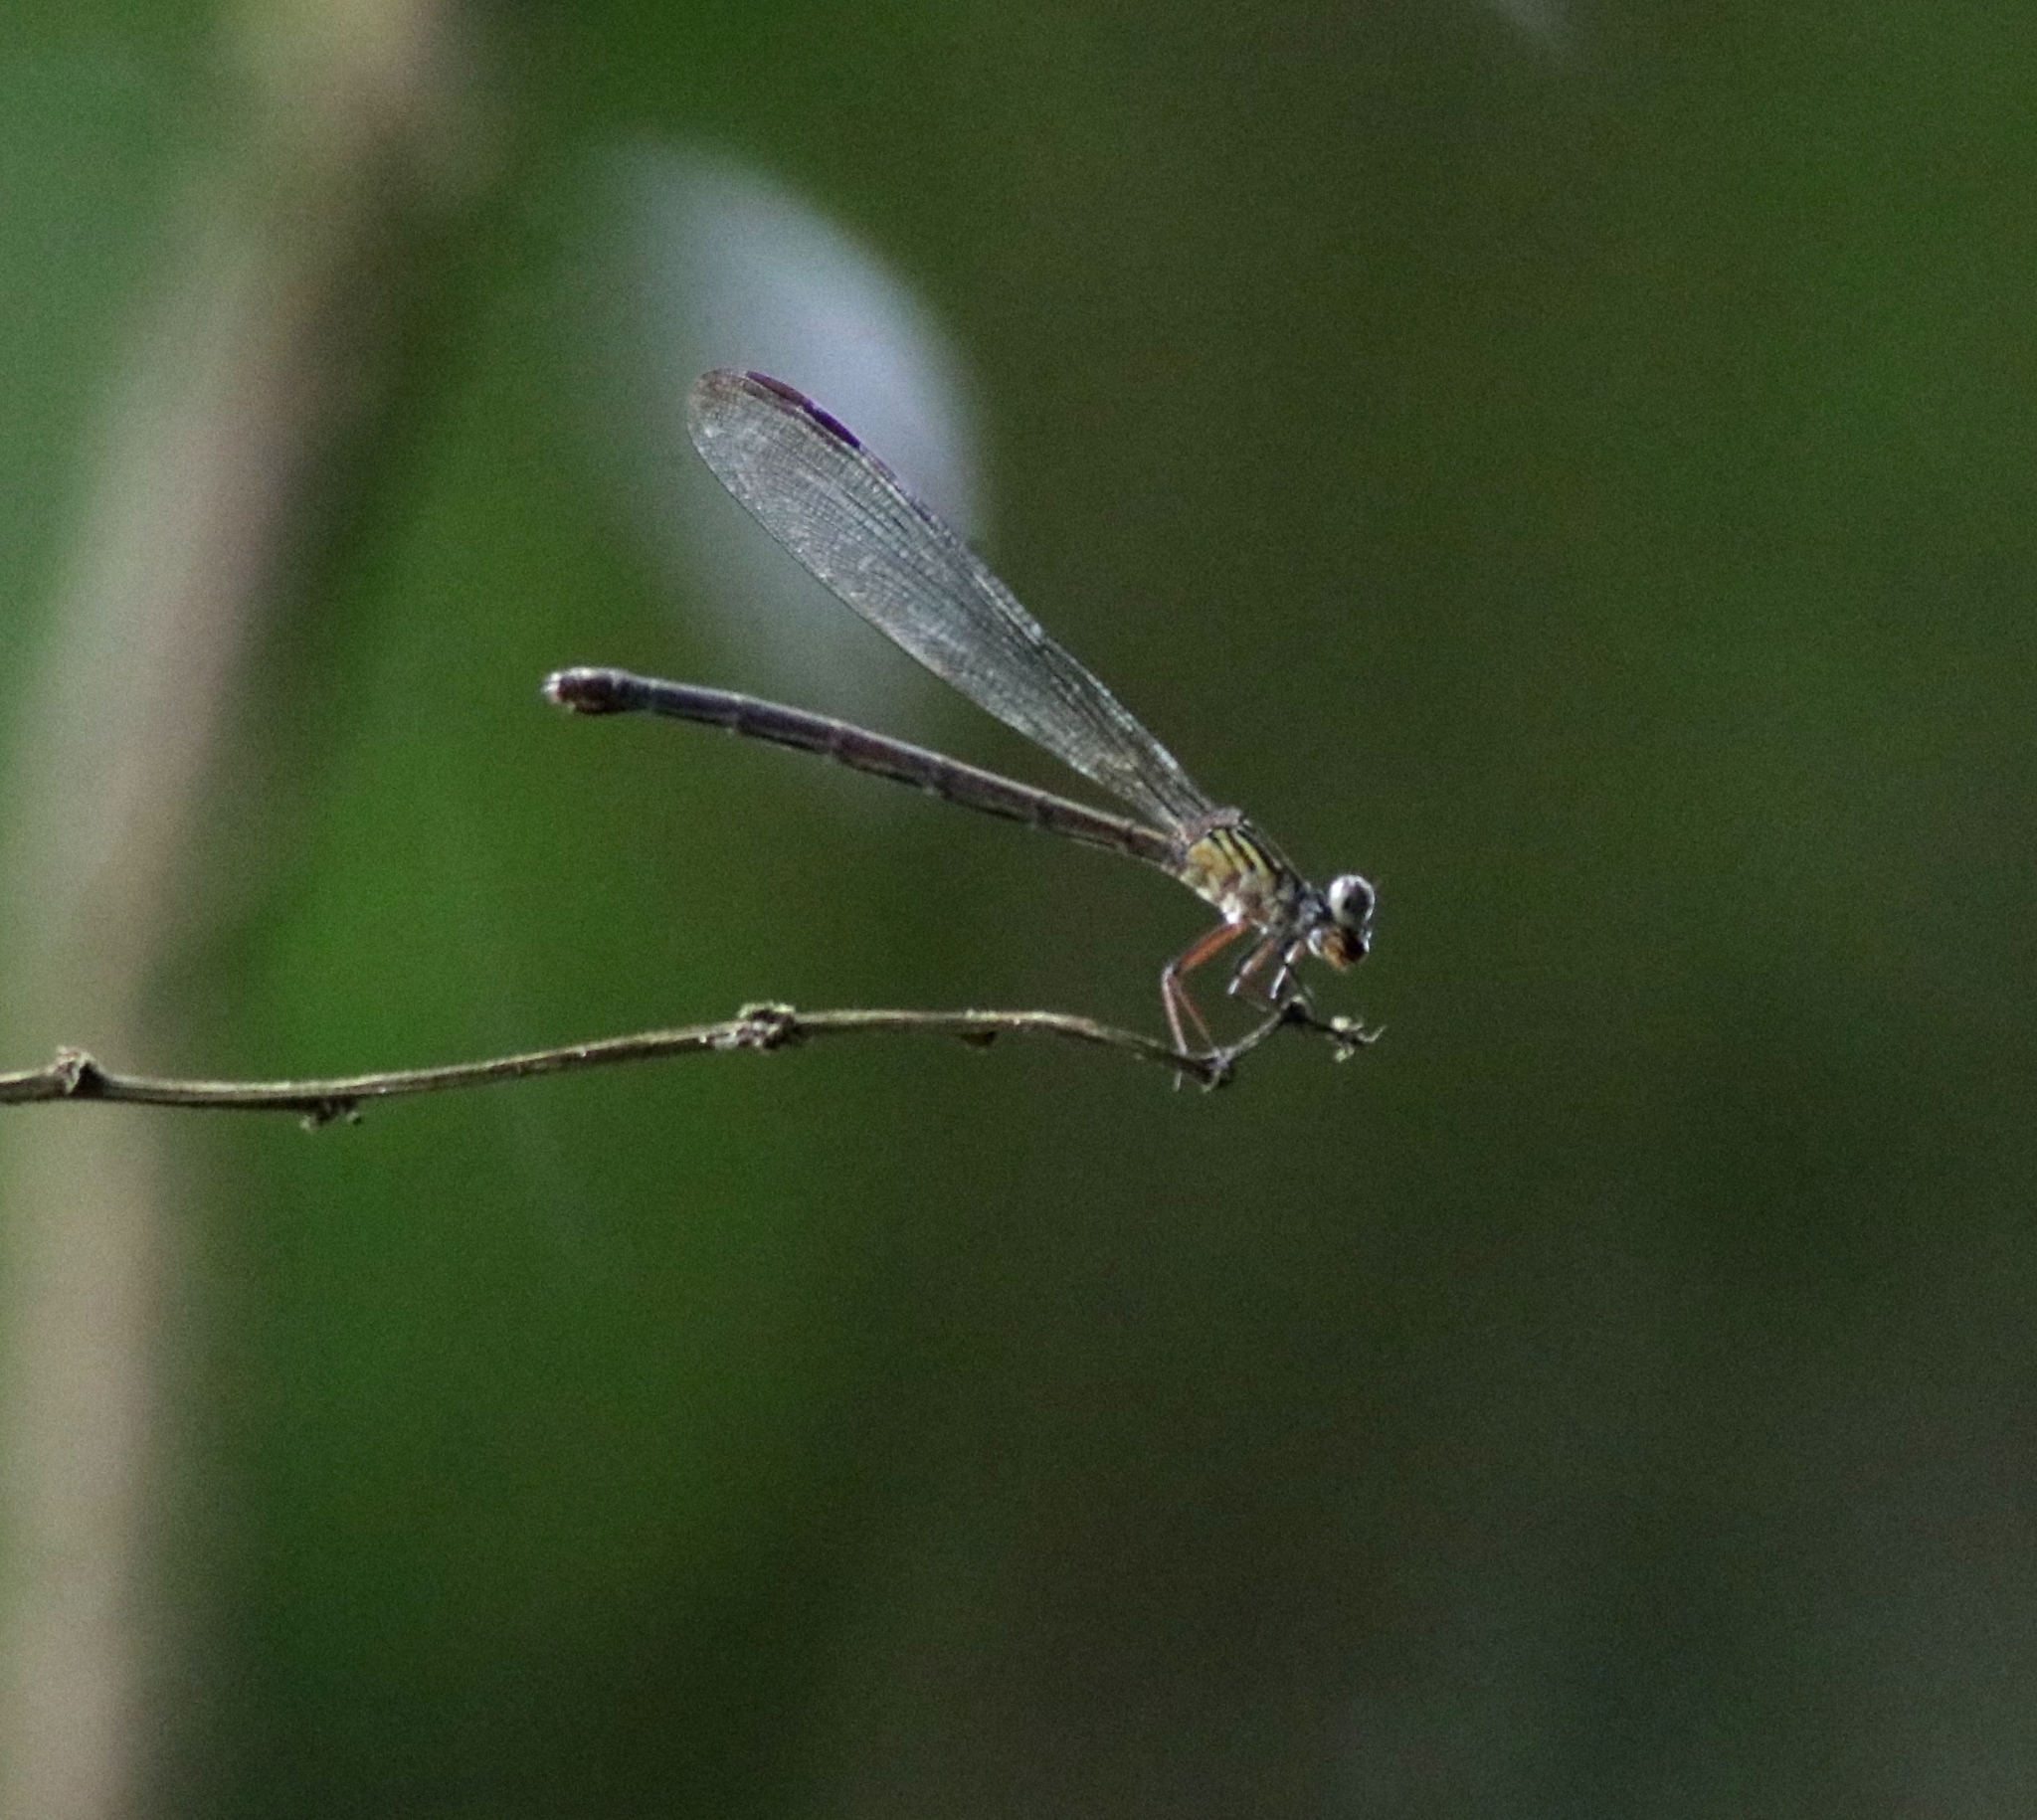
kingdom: Animalia
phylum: Arthropoda
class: Insecta
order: Odonata
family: Euphaeidae
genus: Euphaea
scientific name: Euphaea fraseri
